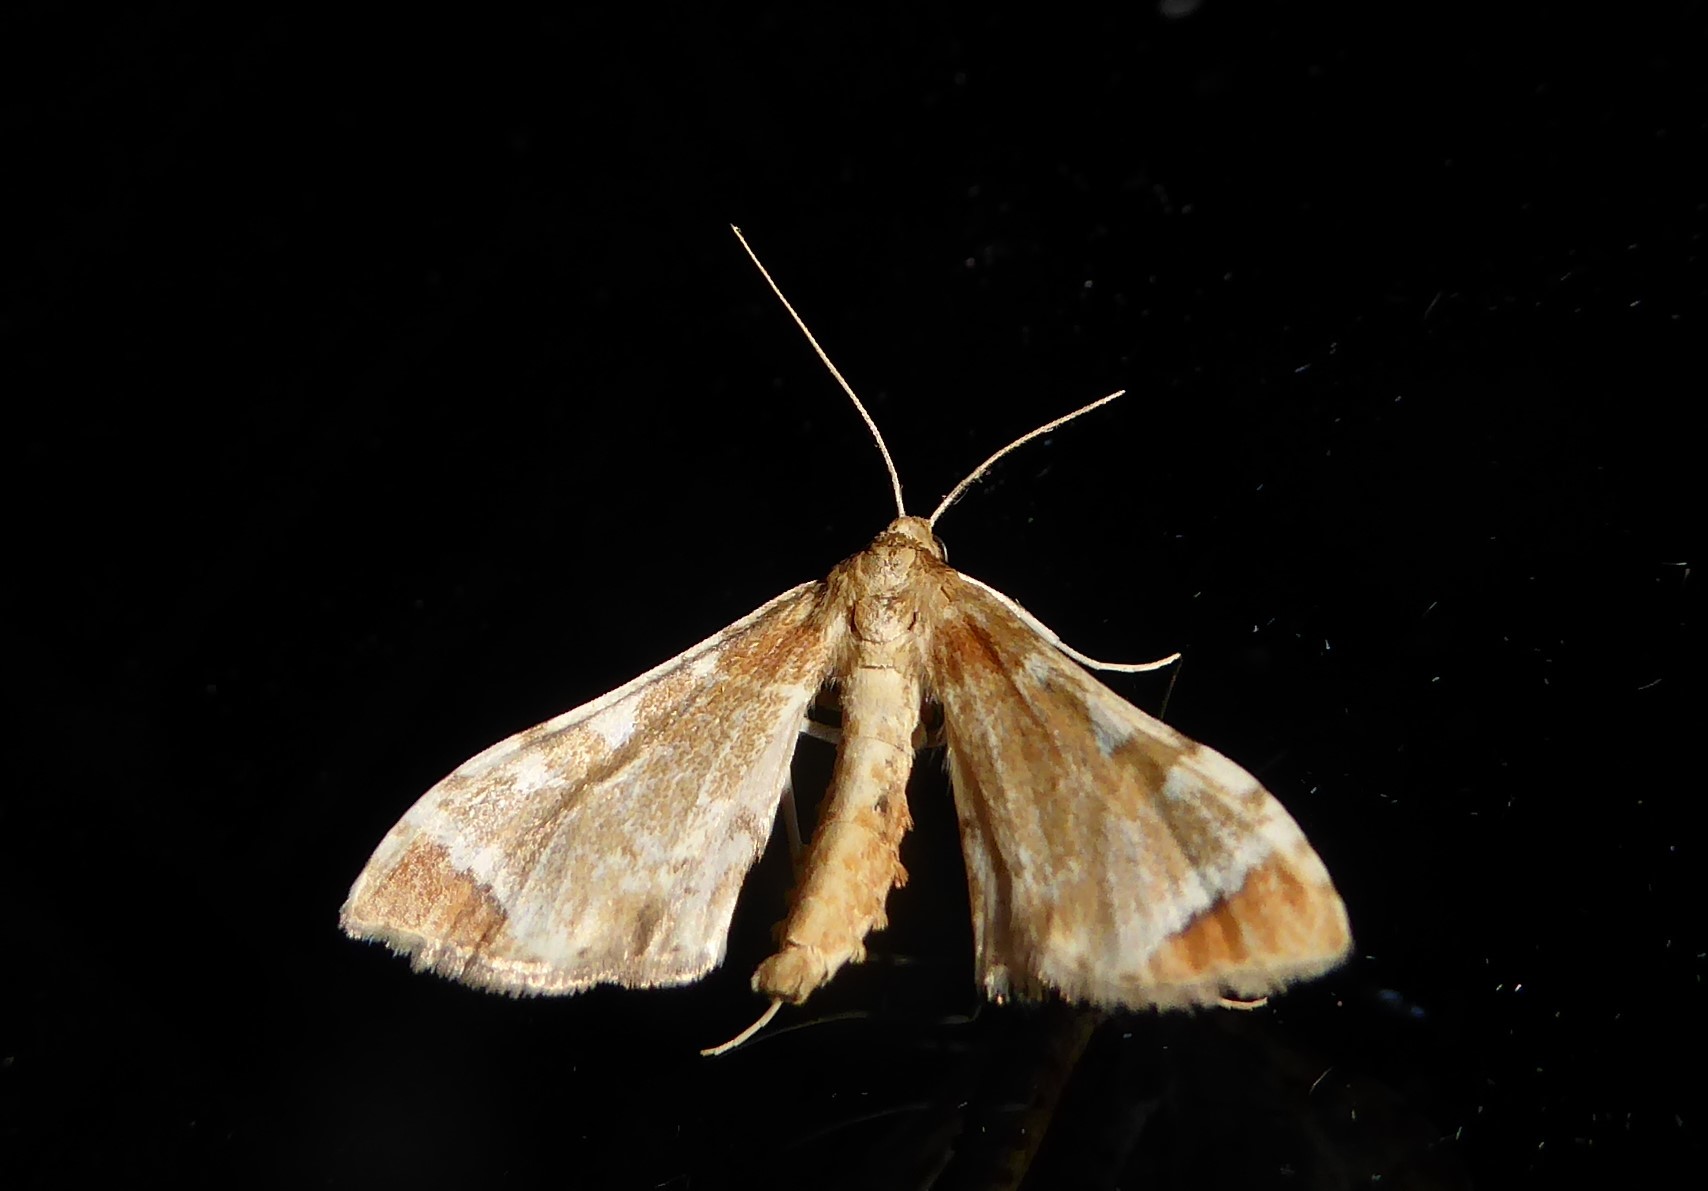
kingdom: Animalia
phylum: Arthropoda
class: Insecta
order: Lepidoptera
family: Crambidae
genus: Sceliodes
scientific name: Sceliodes cordalis
